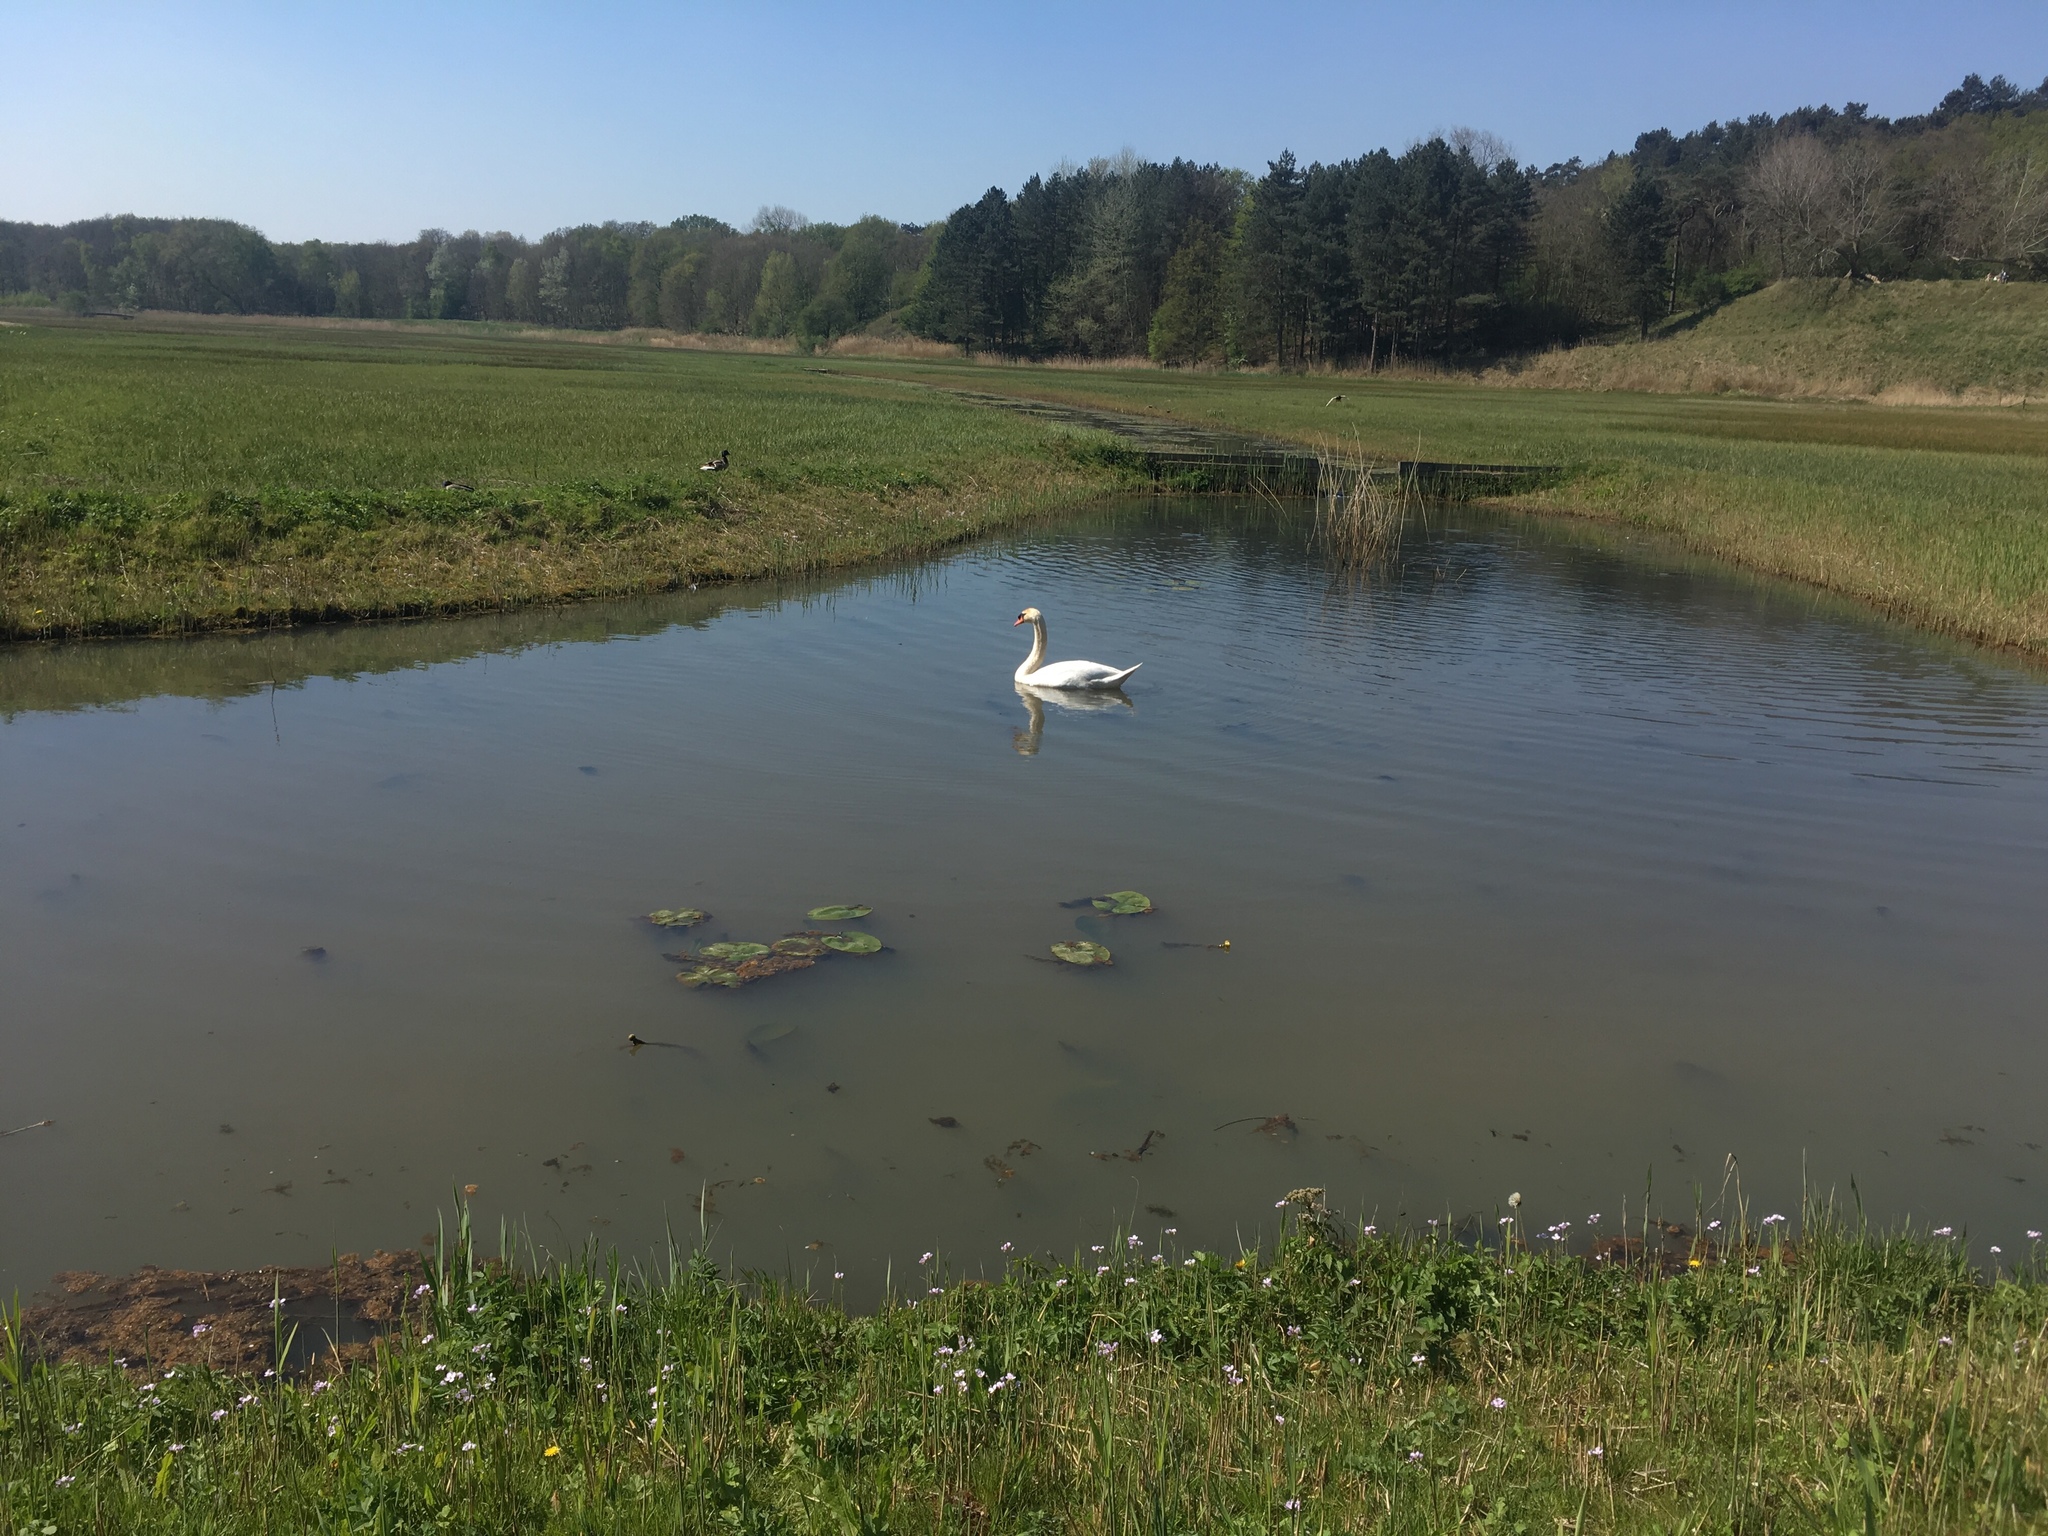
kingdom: Animalia
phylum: Chordata
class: Aves
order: Anseriformes
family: Anatidae
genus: Cygnus
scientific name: Cygnus olor
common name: Mute swan
